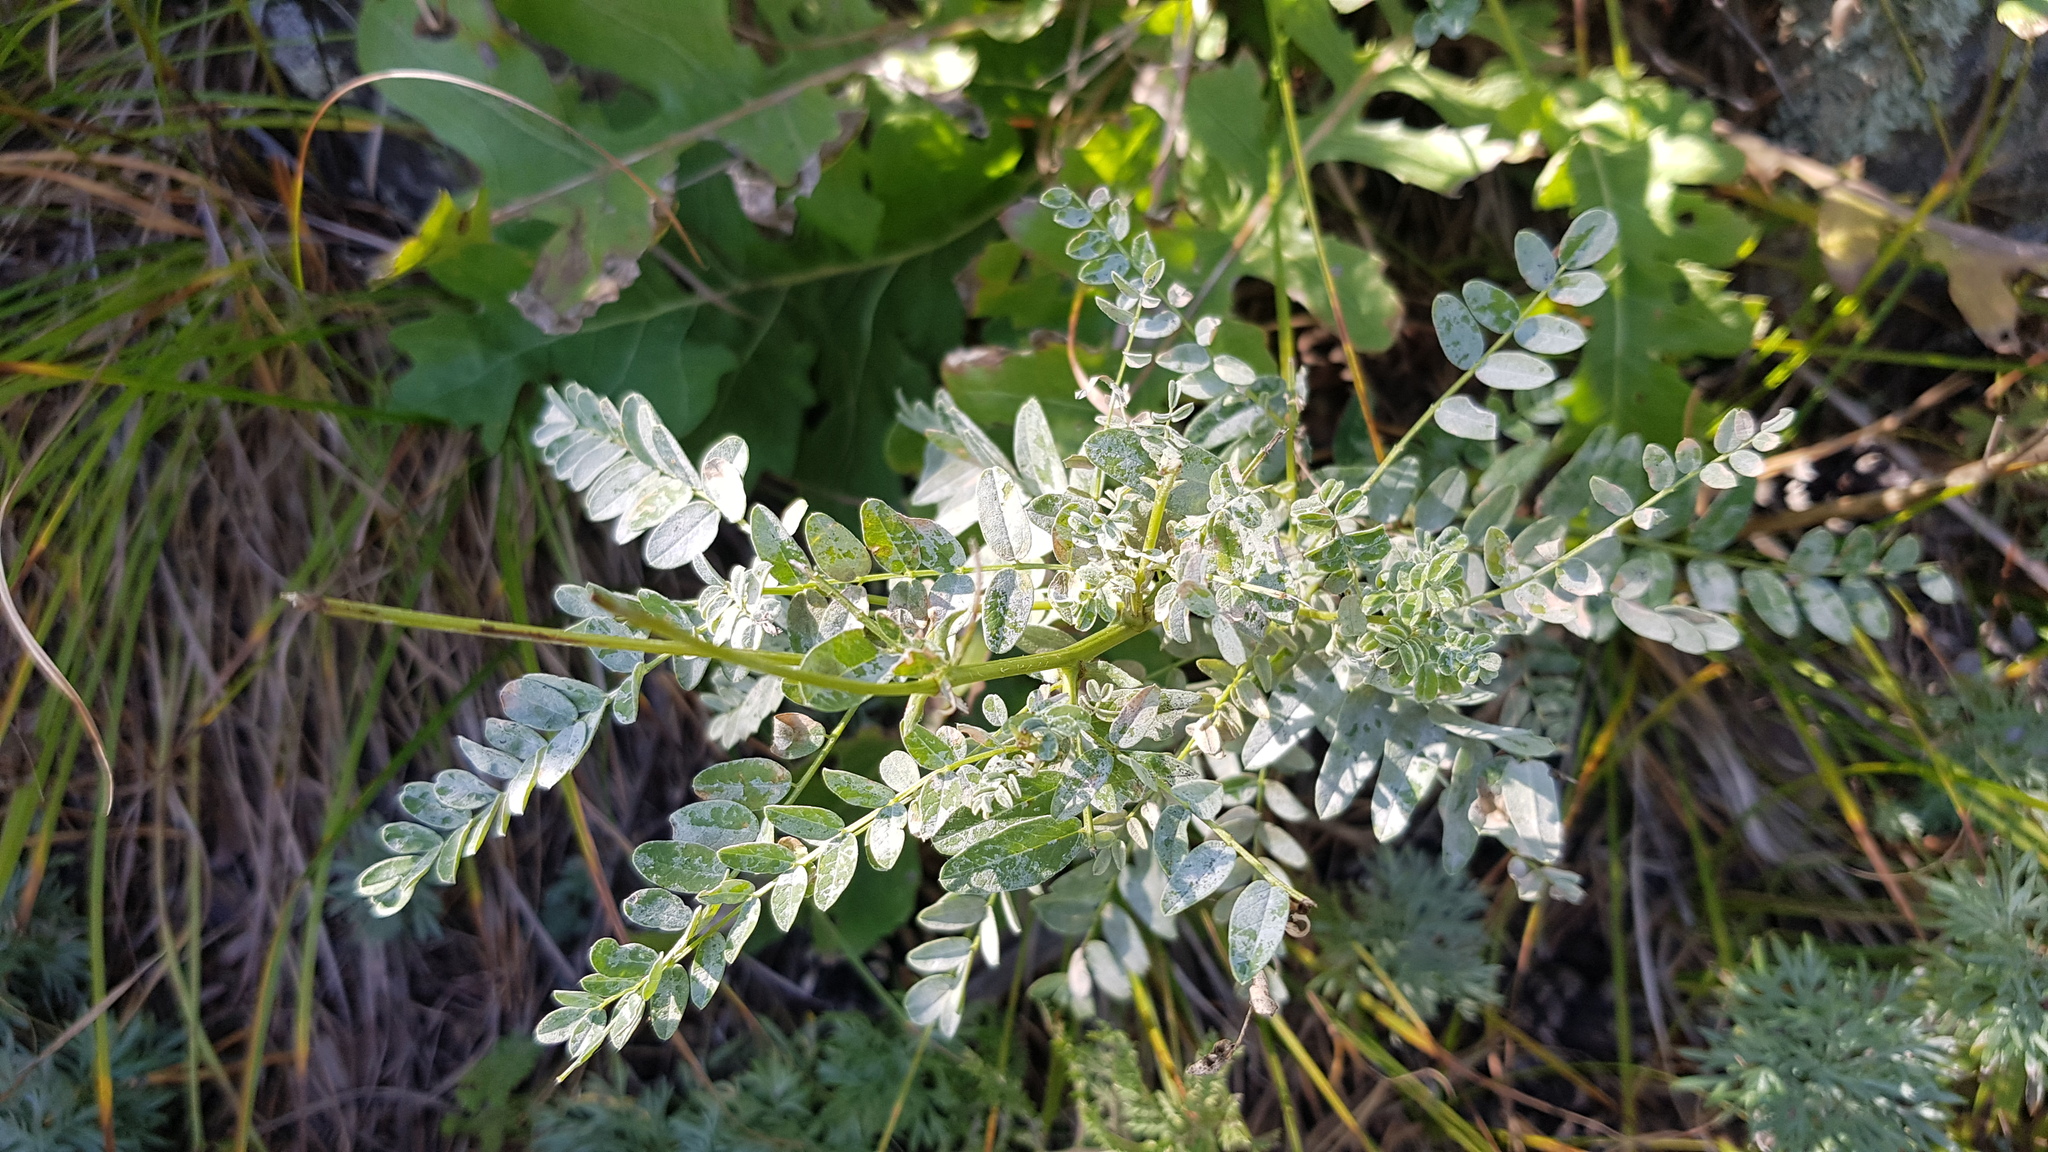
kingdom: Plantae
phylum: Tracheophyta
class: Magnoliopsida
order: Fabales
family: Fabaceae
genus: Astragalus
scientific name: Astragalus laxmannii
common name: Laxmann's milk-vetch
